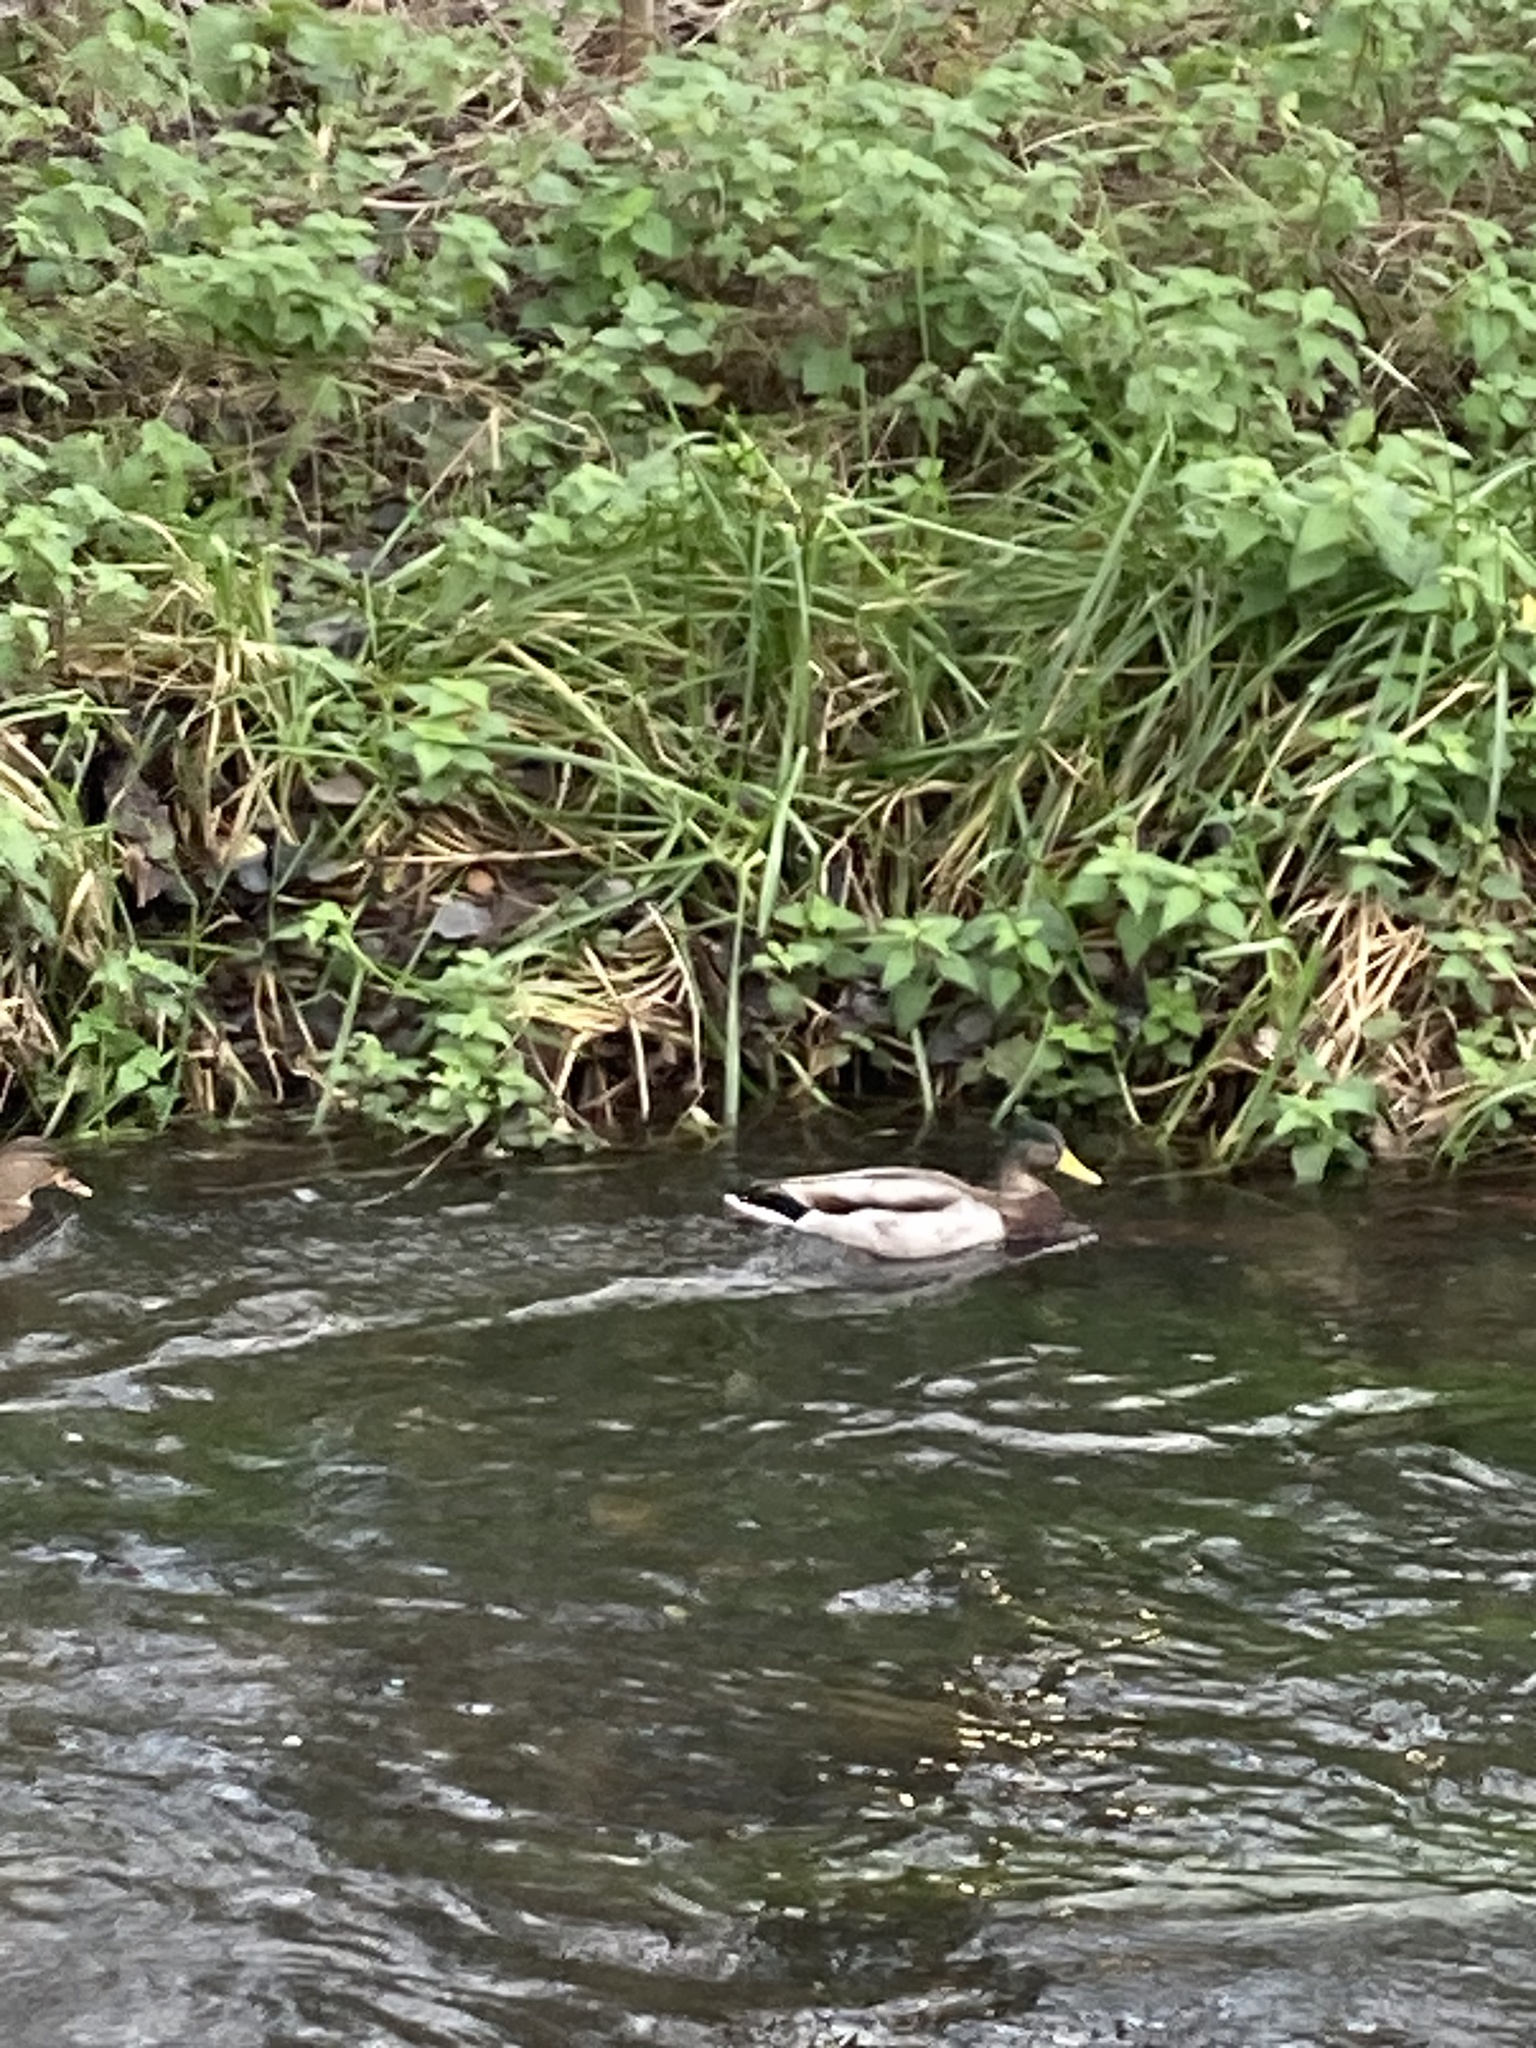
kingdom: Animalia
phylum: Chordata
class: Aves
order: Anseriformes
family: Anatidae
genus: Anas
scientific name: Anas platyrhynchos
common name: Mallard
